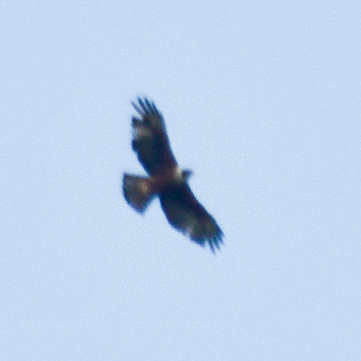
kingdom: Animalia
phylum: Chordata
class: Aves
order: Accipitriformes
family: Accipitridae
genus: Lophotriorchis
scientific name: Lophotriorchis kienerii
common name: Rufous-bellied eagle
